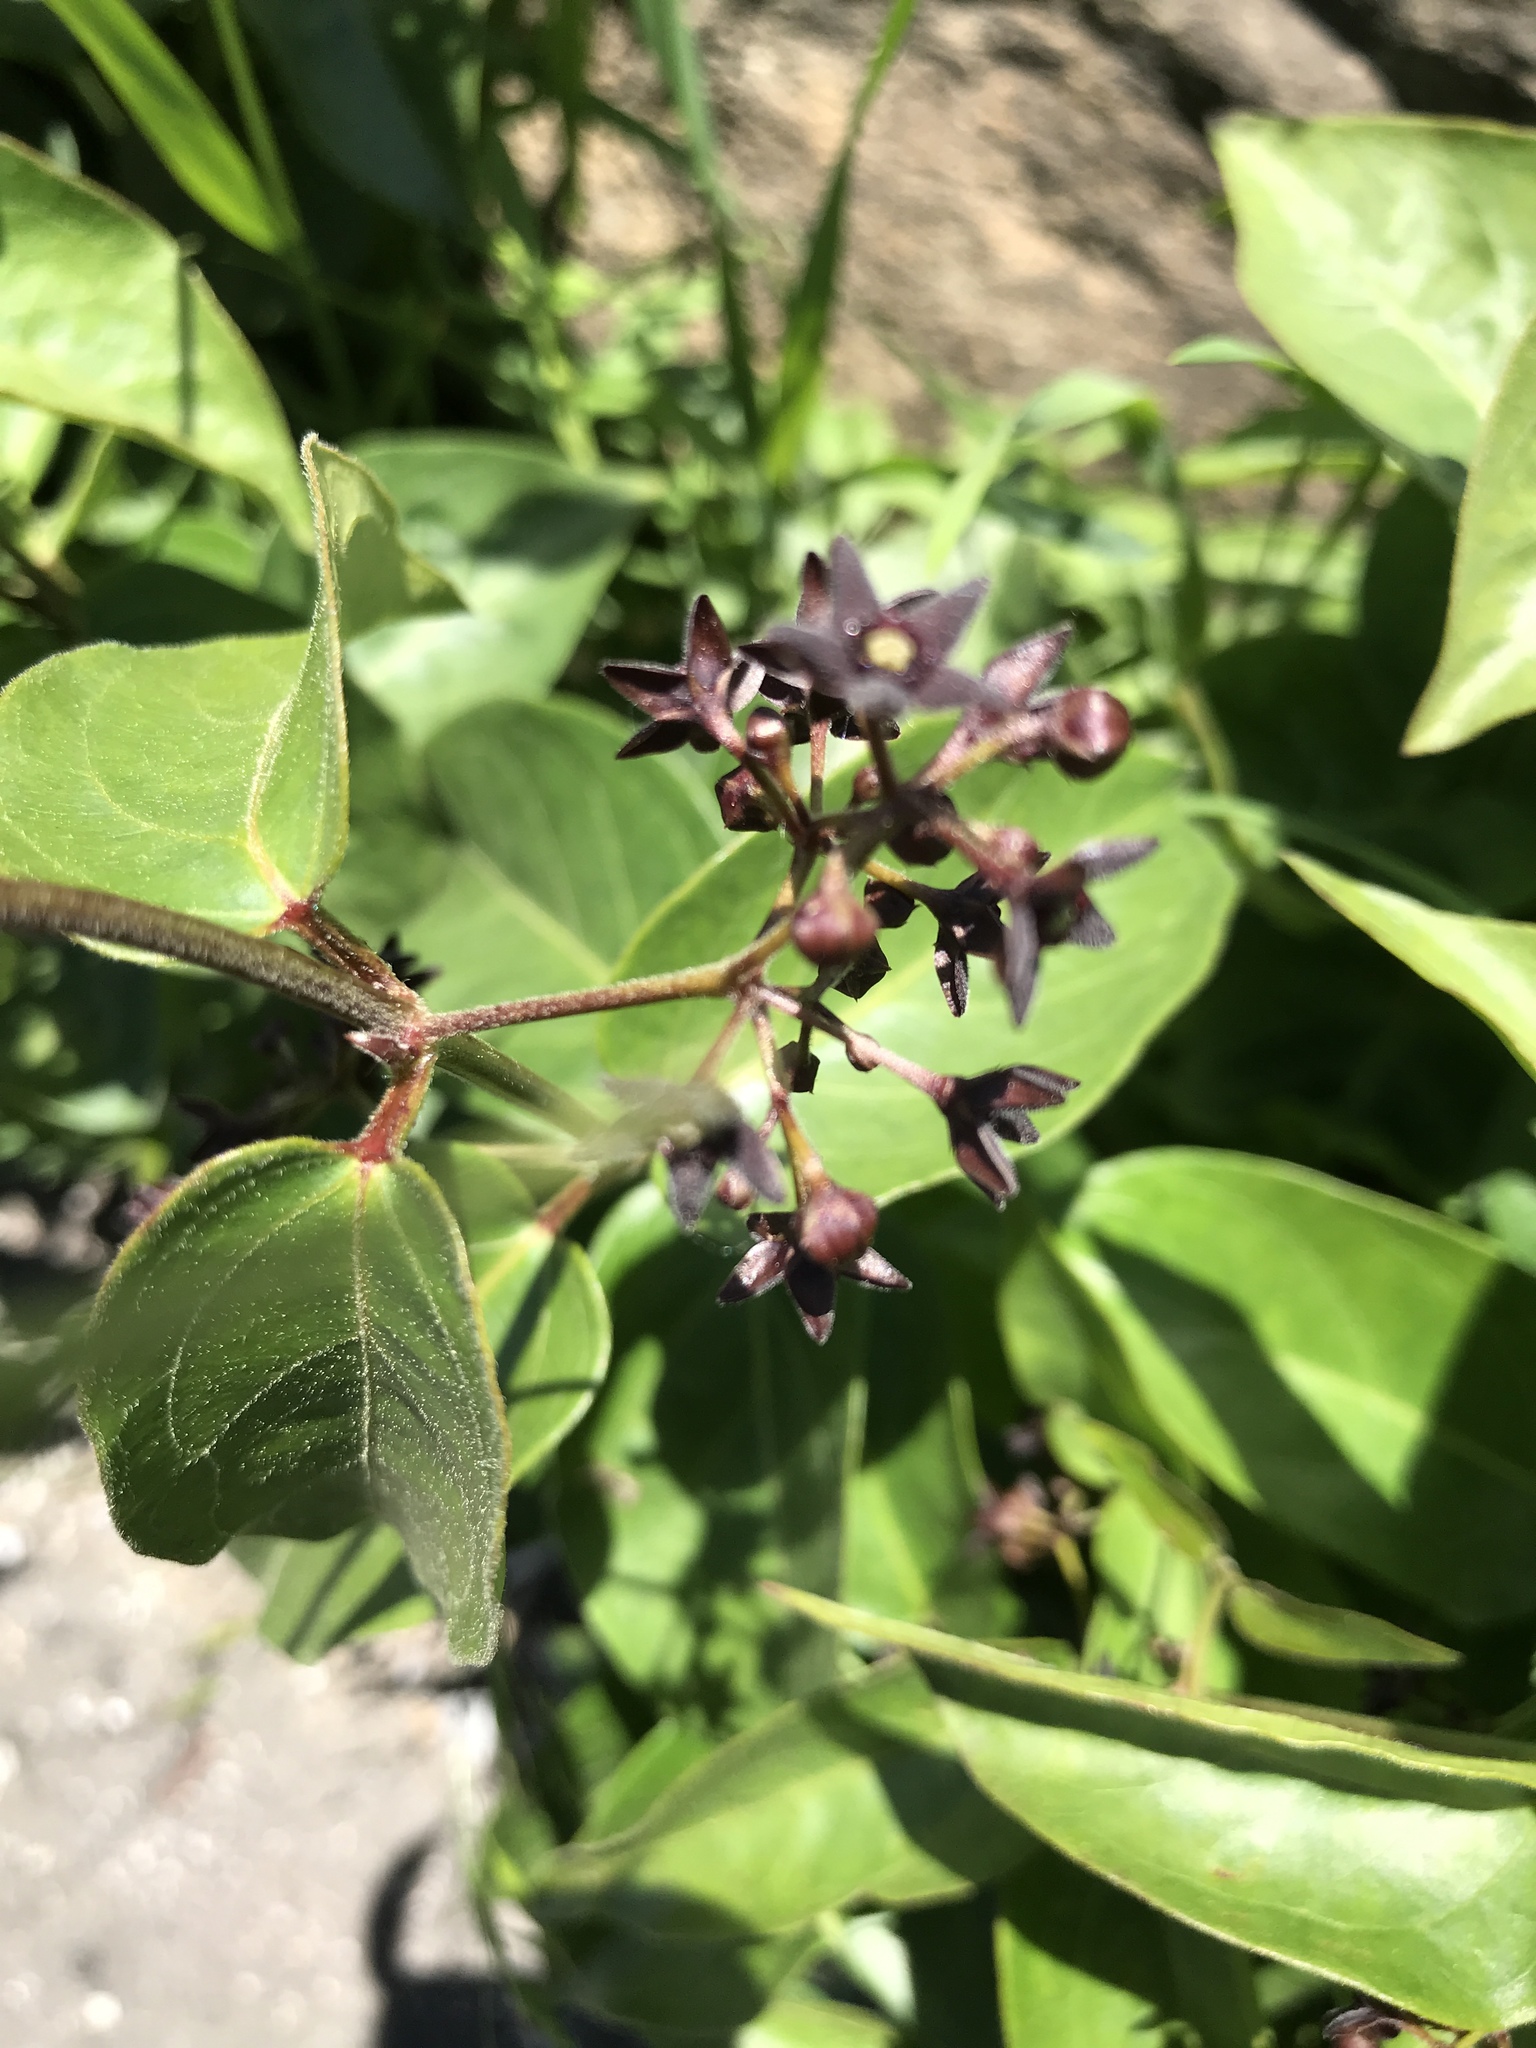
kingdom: Plantae
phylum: Tracheophyta
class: Magnoliopsida
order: Gentianales
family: Apocynaceae
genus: Vincetoxicum
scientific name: Vincetoxicum nigrum
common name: Black swallow-wort
